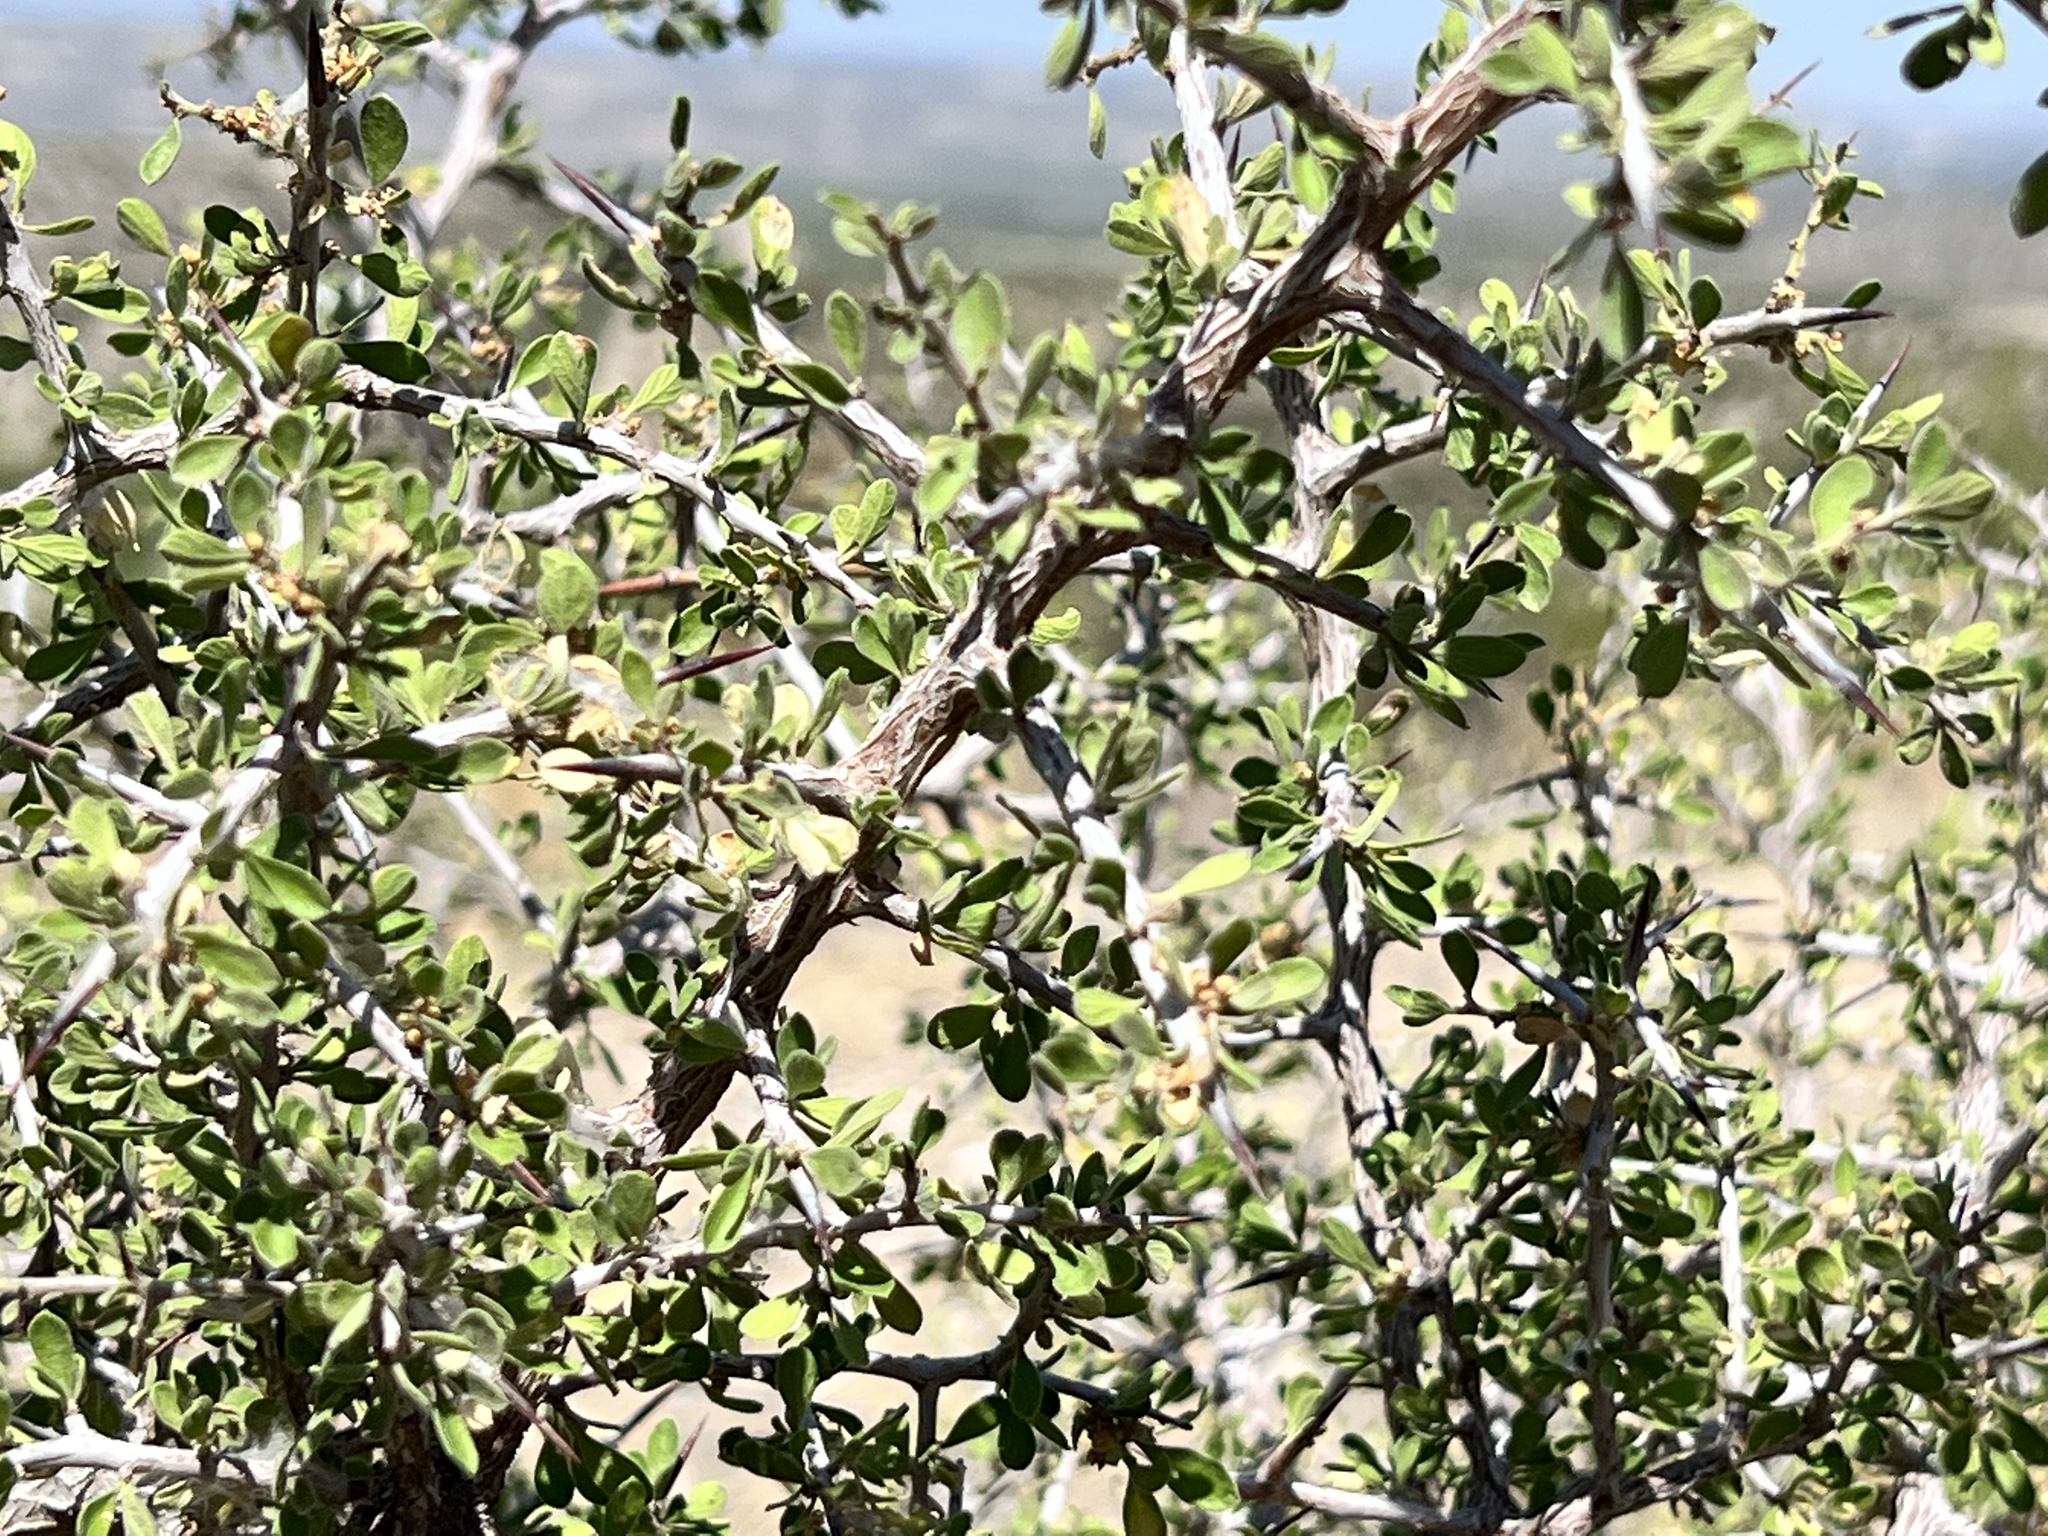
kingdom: Plantae
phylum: Tracheophyta
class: Magnoliopsida
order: Rosales
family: Rhamnaceae
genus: Condalia
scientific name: Condalia viridis
